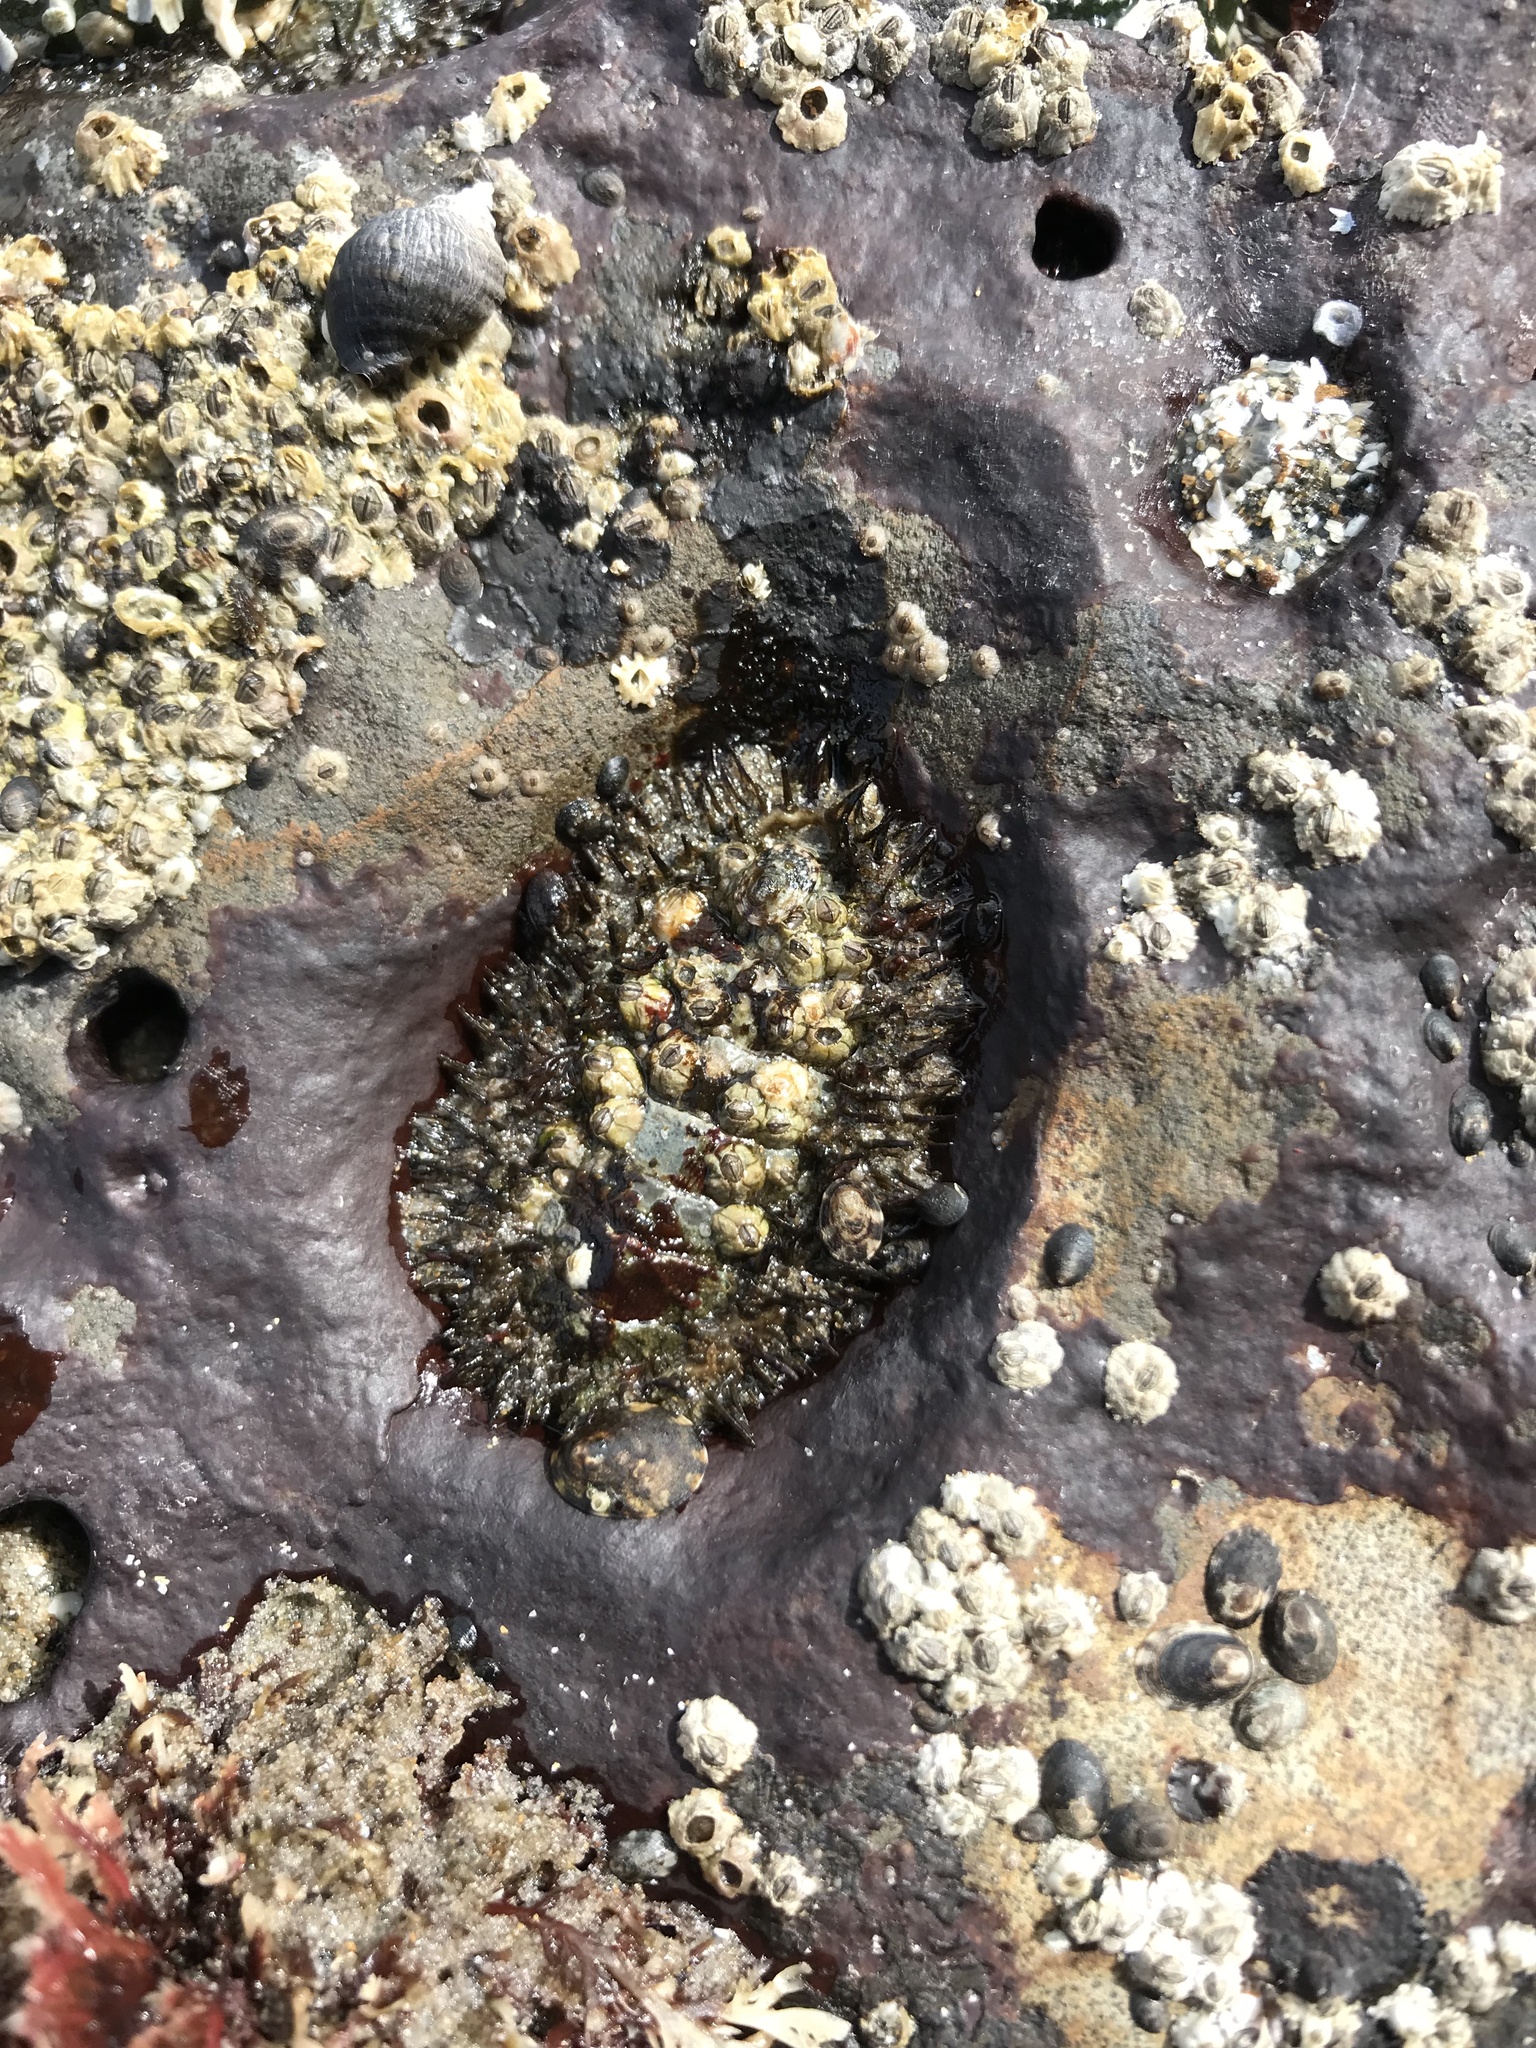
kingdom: Animalia
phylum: Mollusca
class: Polyplacophora
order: Chitonida
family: Mopaliidae
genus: Mopalia
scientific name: Mopalia muscosa
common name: Mossy chiton
